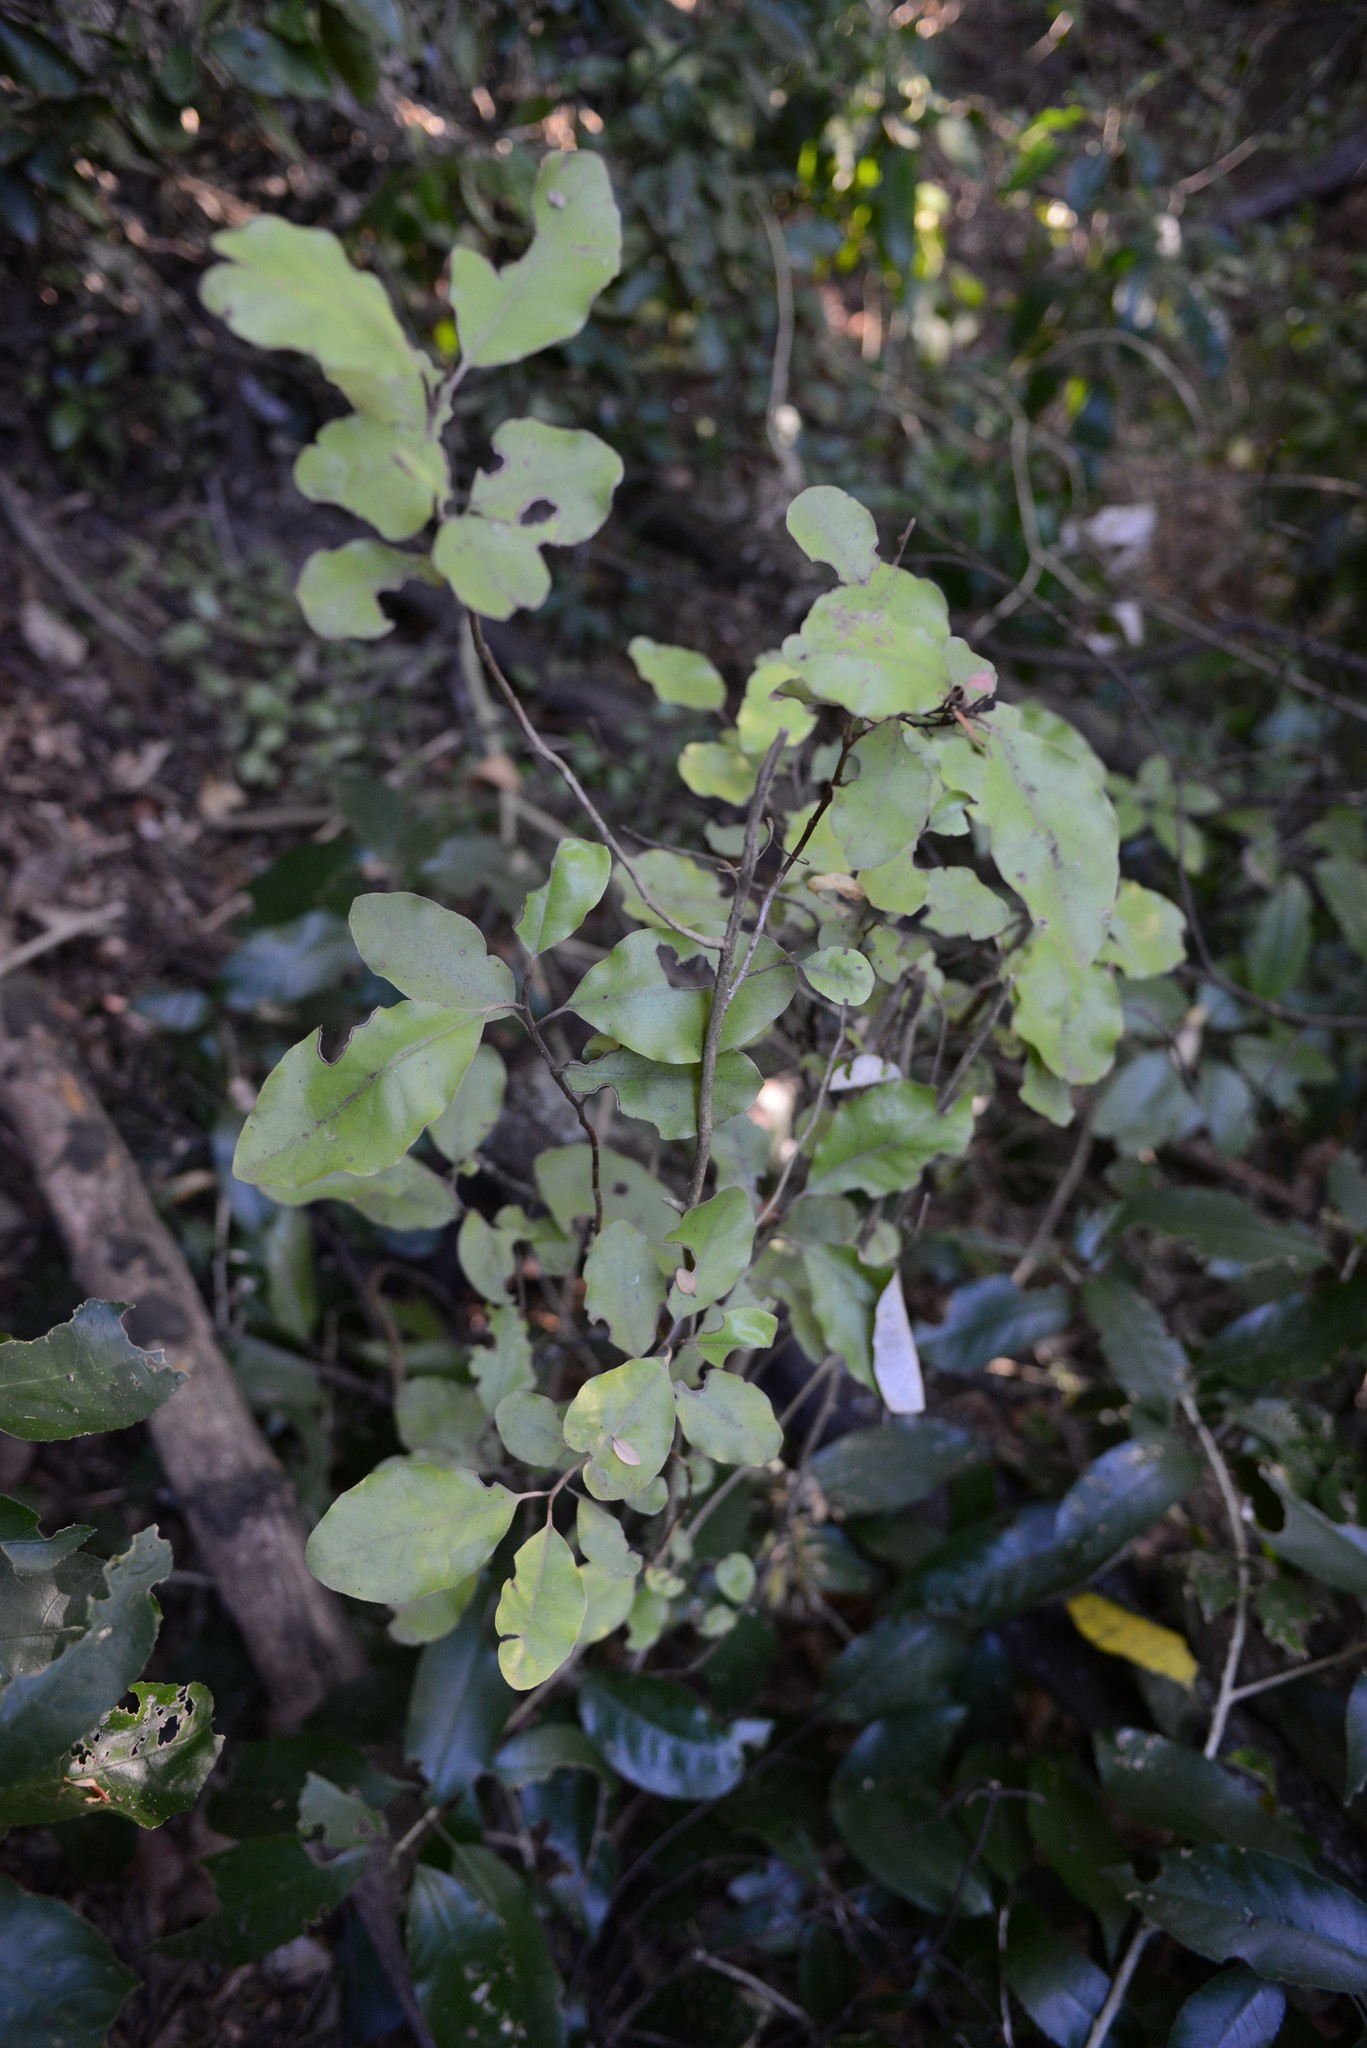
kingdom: Plantae
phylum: Tracheophyta
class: Magnoliopsida
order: Asterales
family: Asteraceae
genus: Olearia
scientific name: Olearia paniculata
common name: Akiraho
